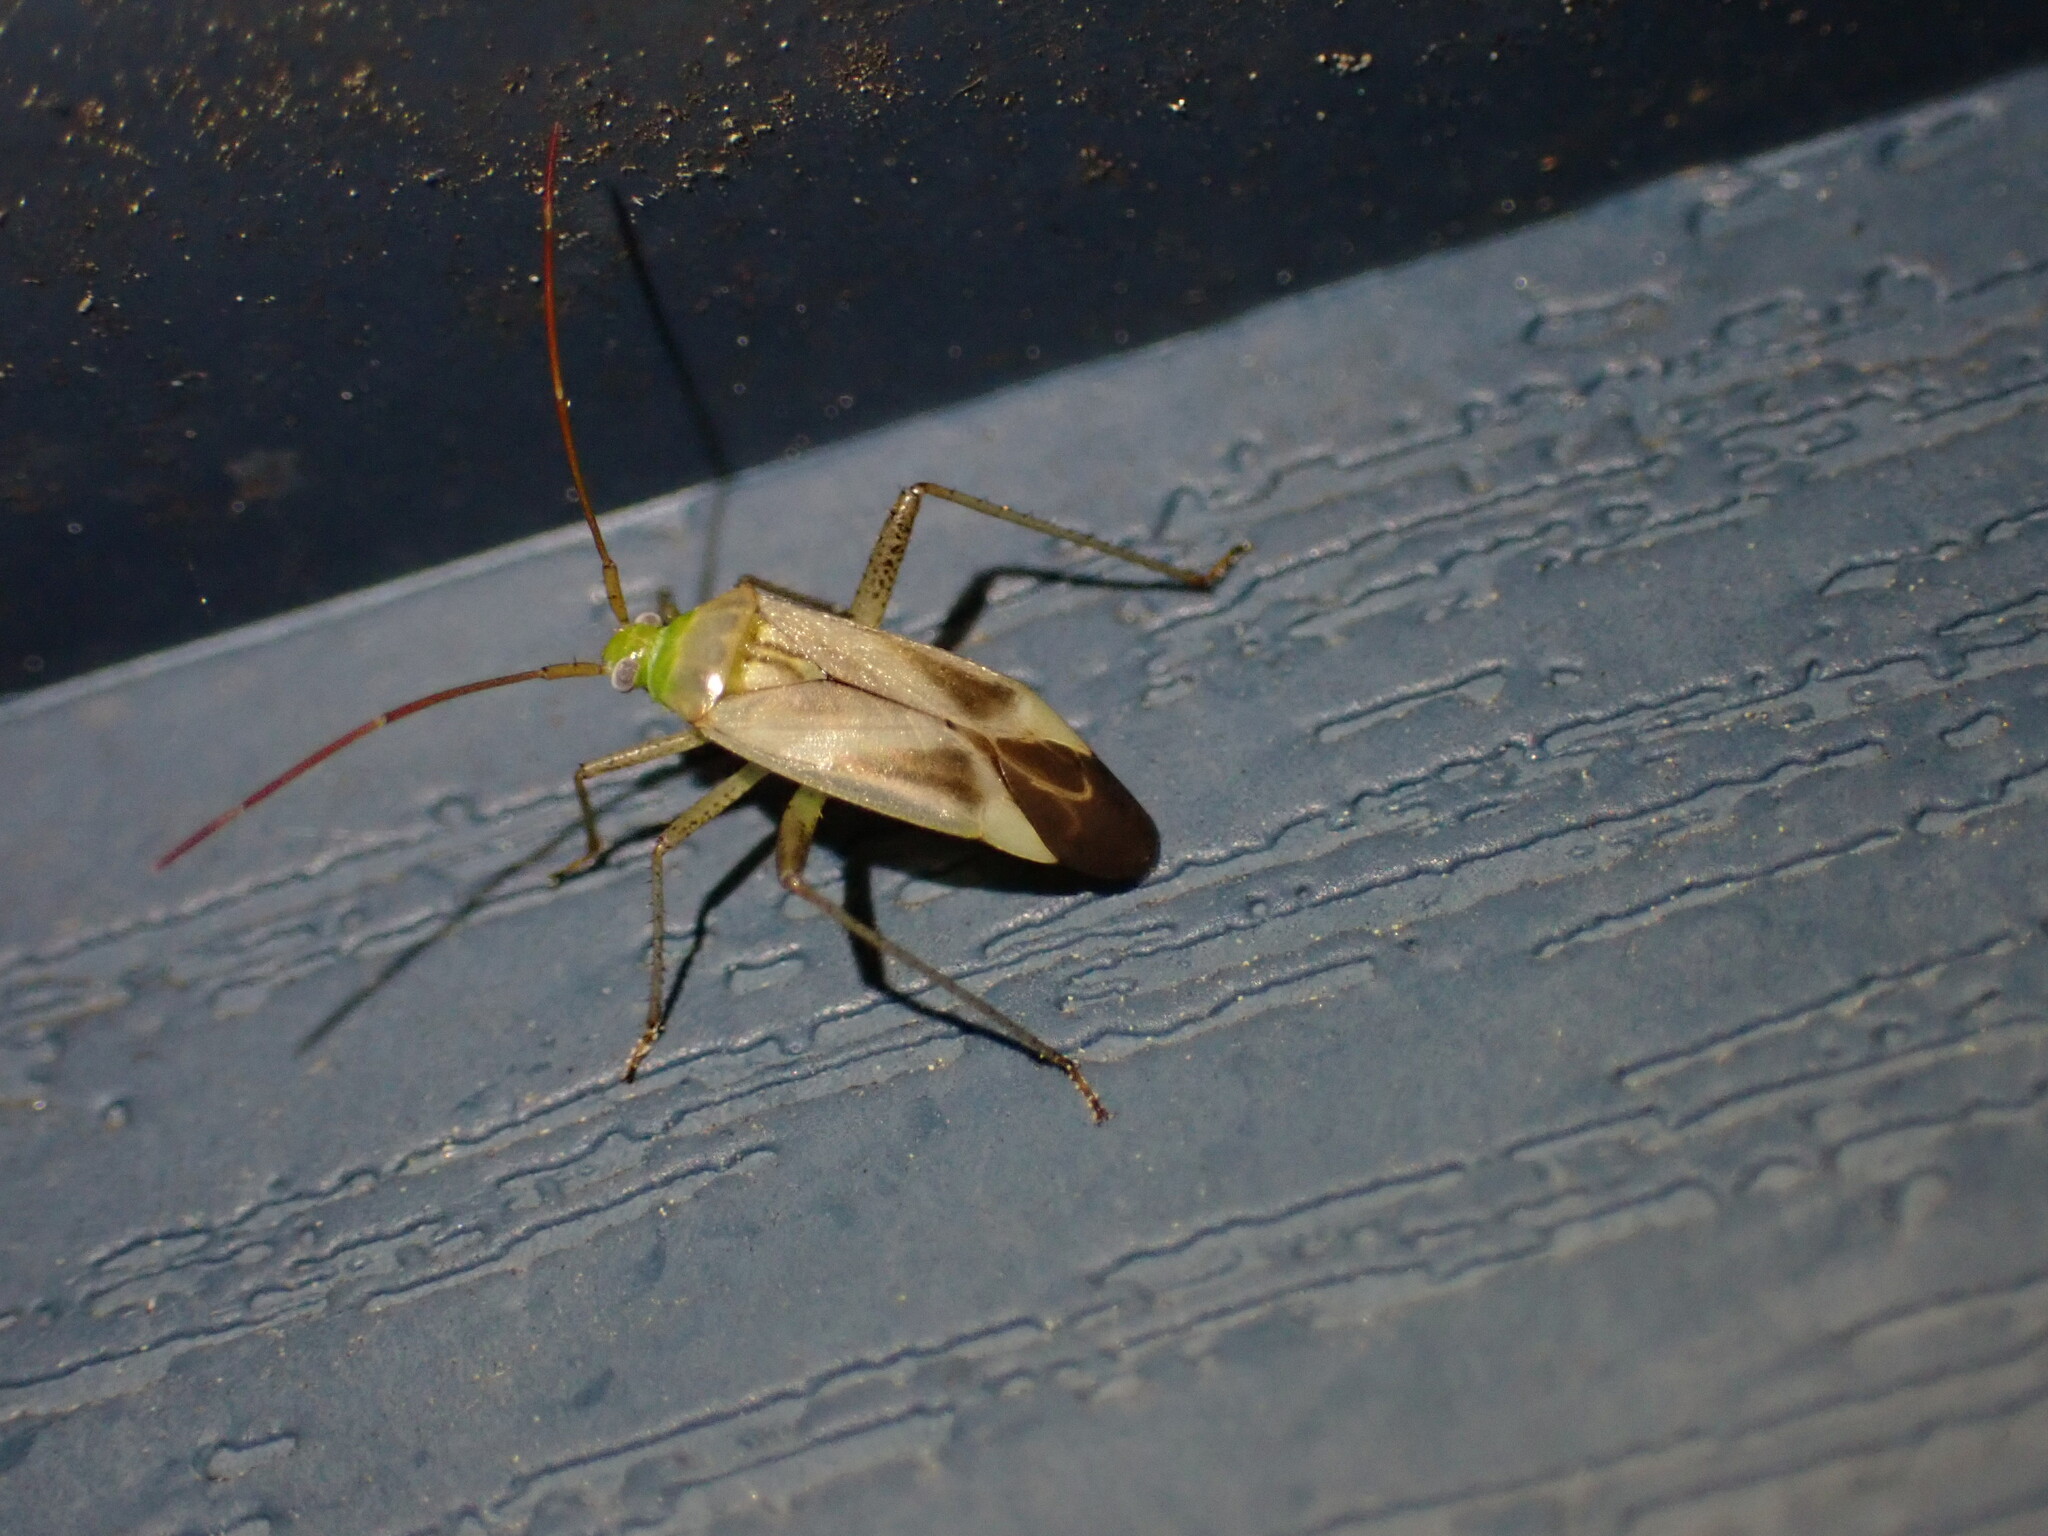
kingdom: Animalia
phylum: Arthropoda
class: Insecta
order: Hemiptera
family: Miridae
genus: Adelphocoris
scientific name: Adelphocoris lineolatus
